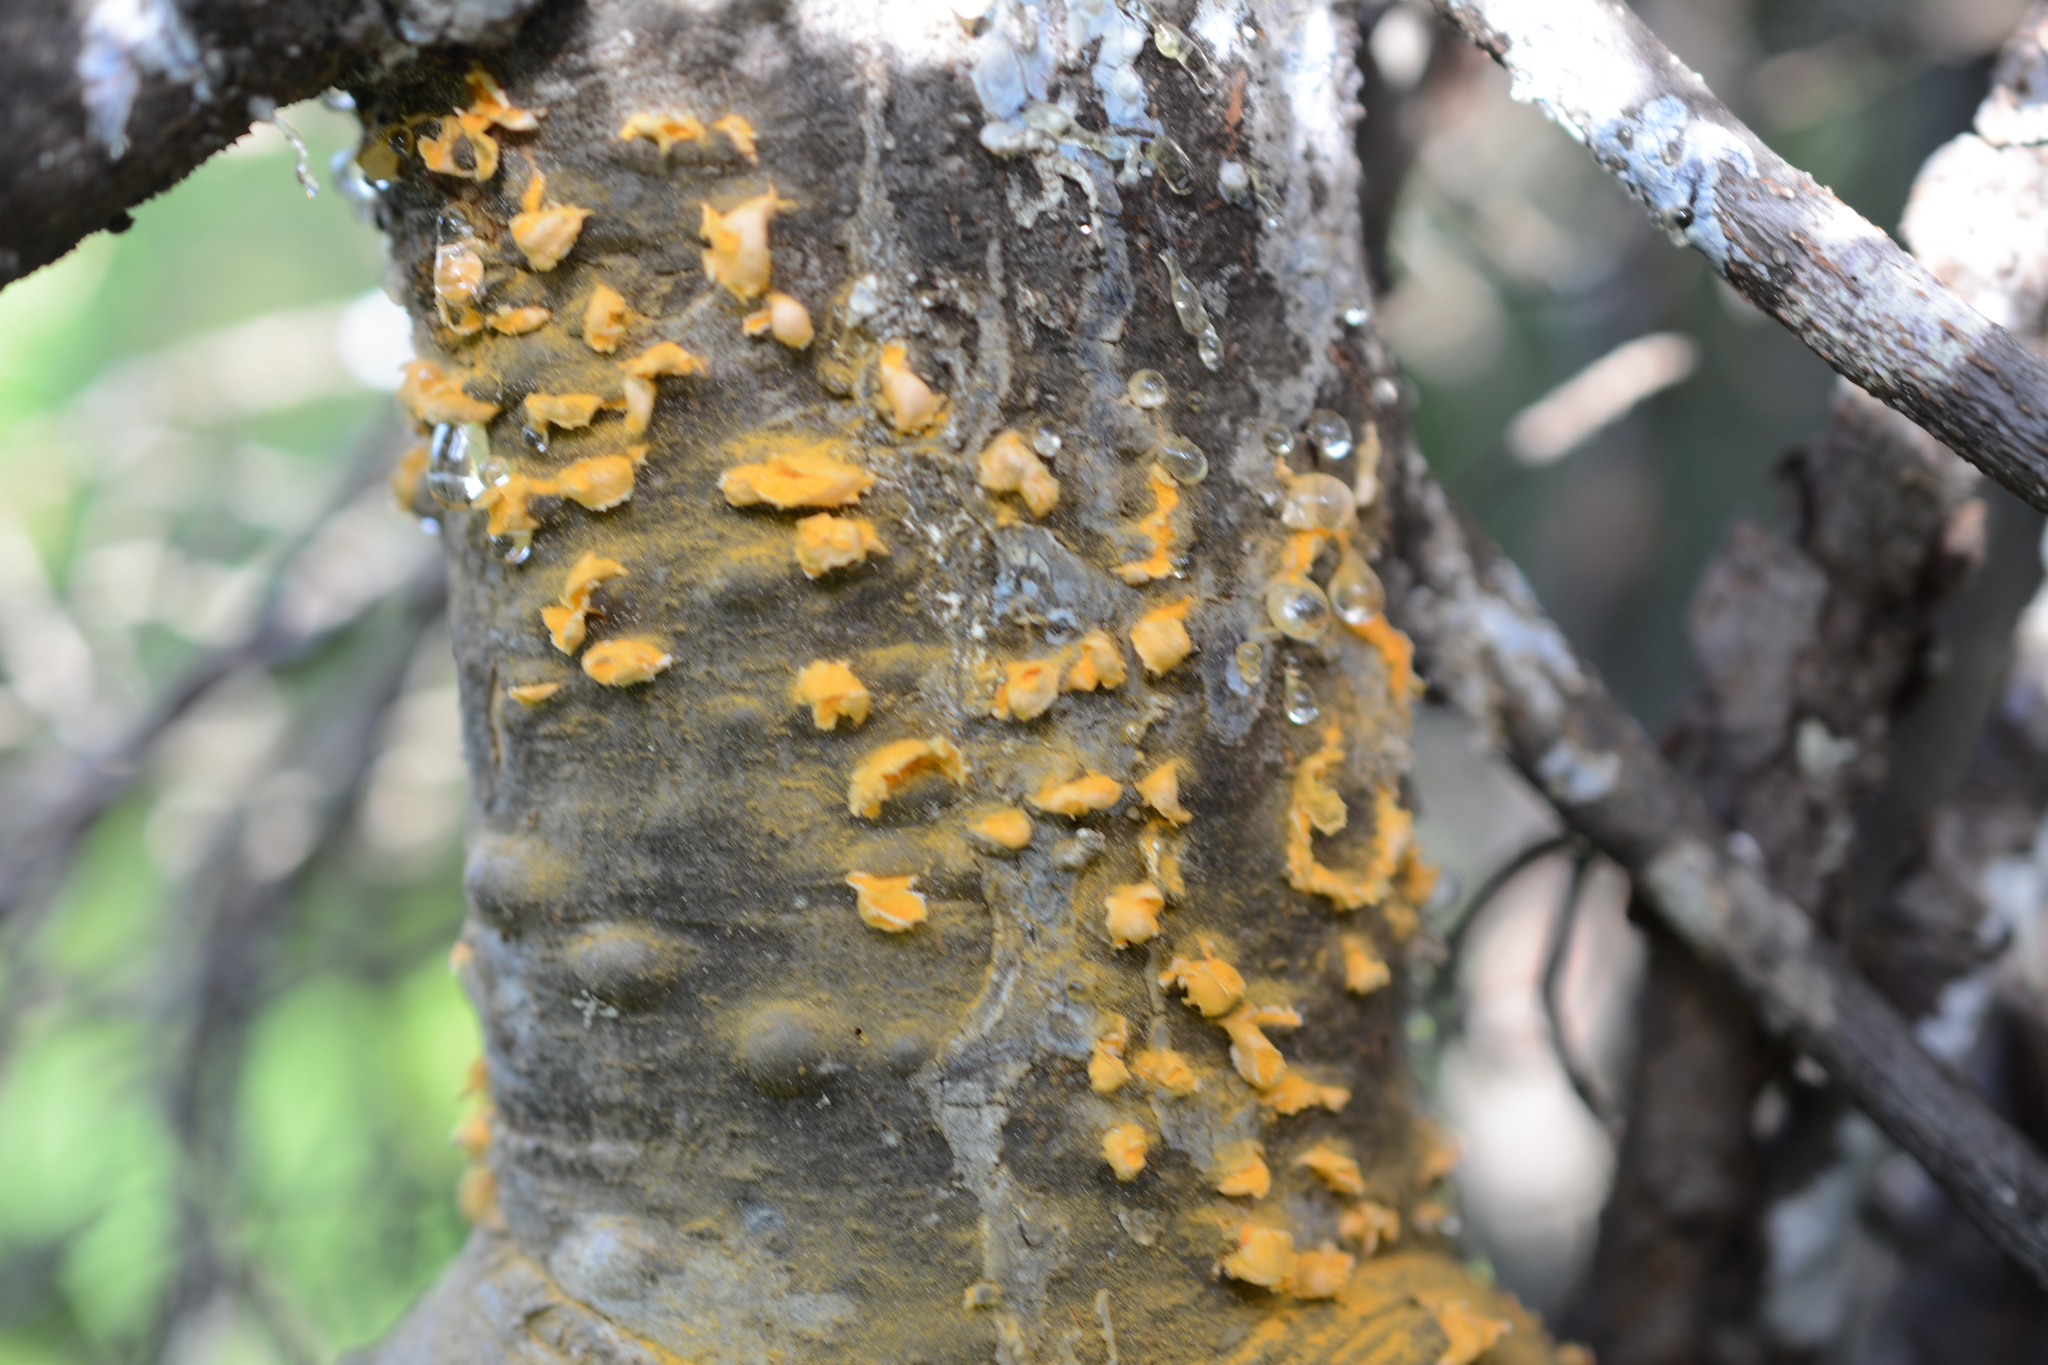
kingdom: Fungi
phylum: Basidiomycota
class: Pucciniomycetes
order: Pucciniales
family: Cronartiaceae
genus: Cronartium
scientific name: Cronartium ribicola
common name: White pine blister rust
